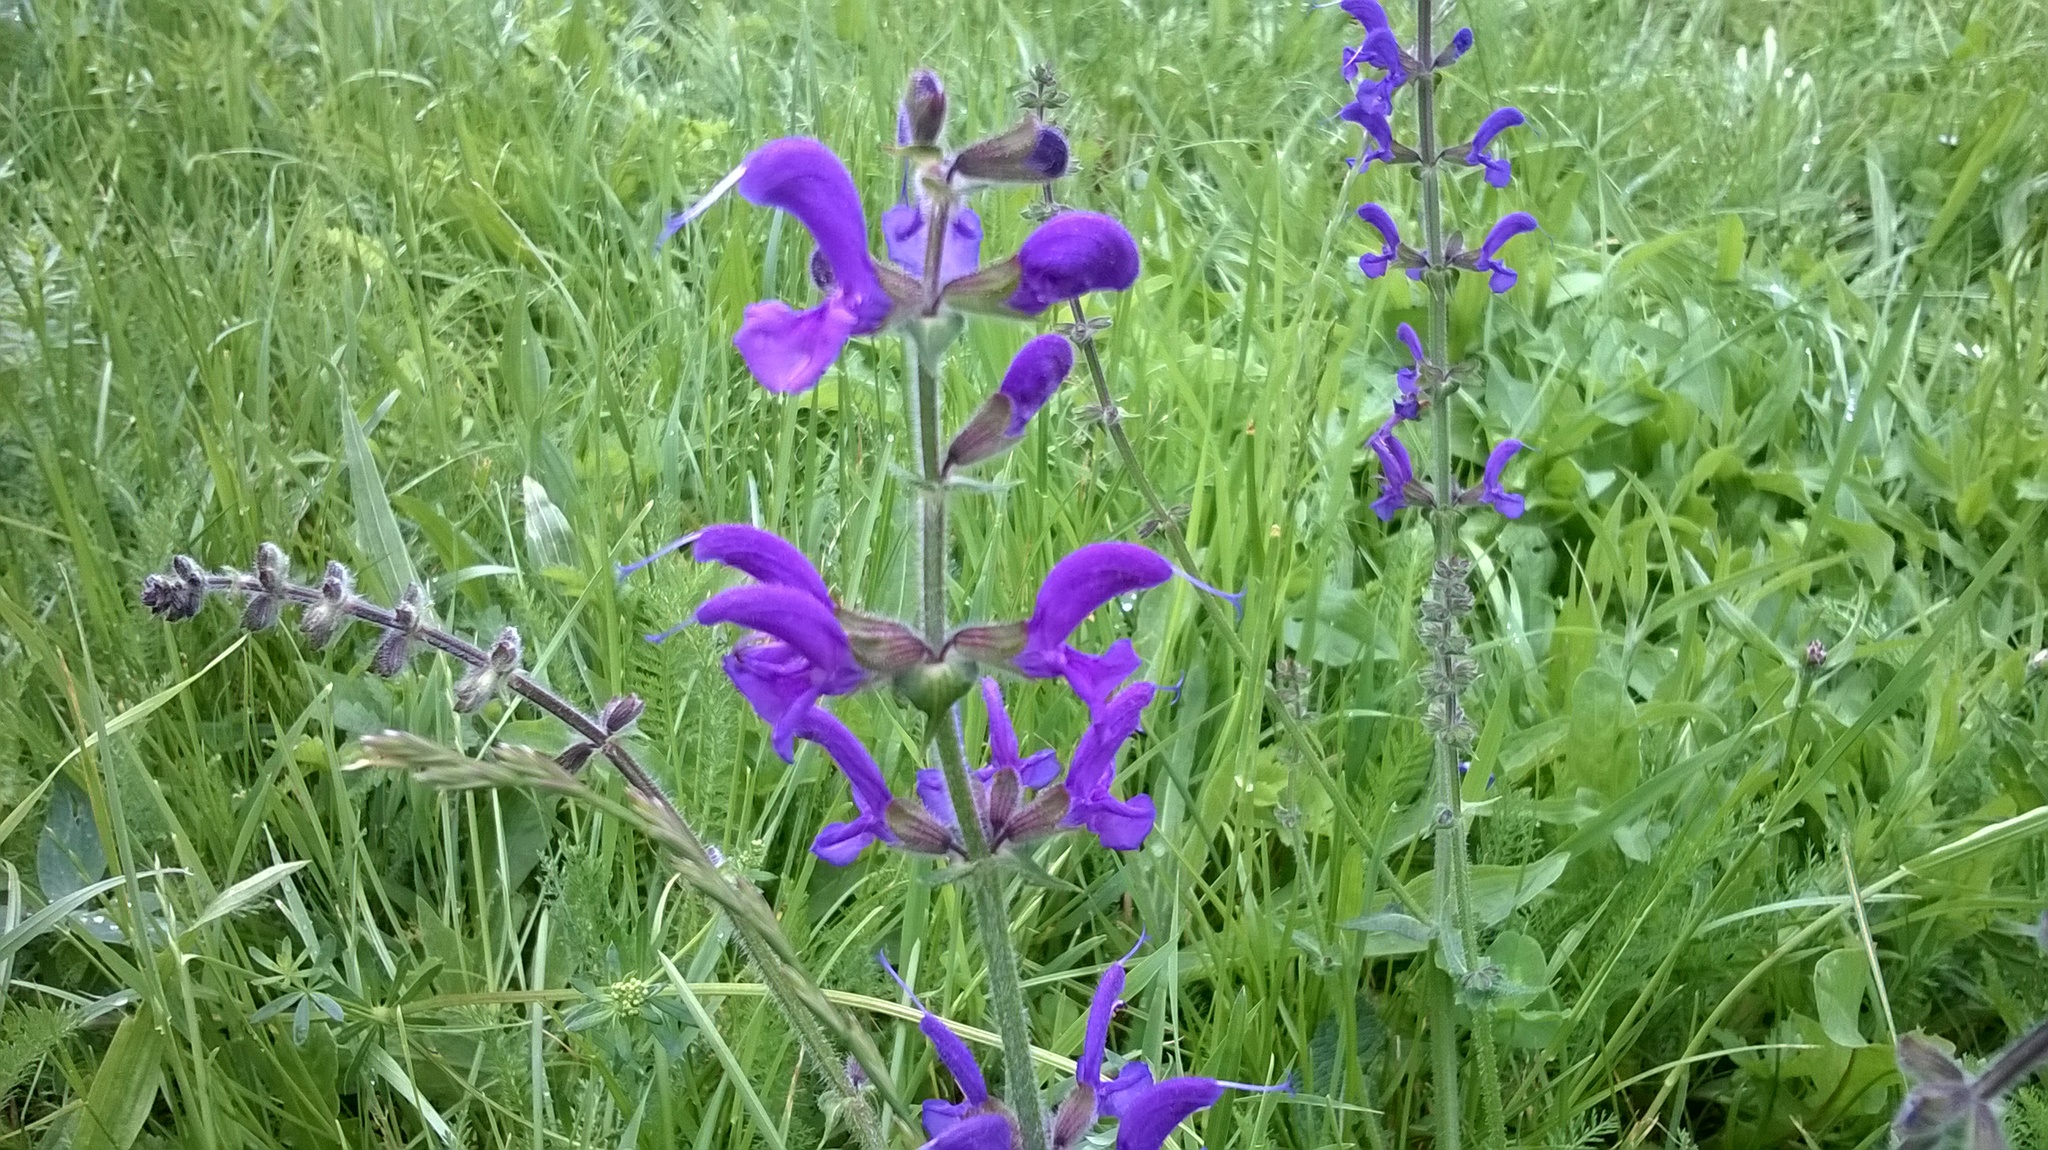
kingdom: Plantae
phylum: Tracheophyta
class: Magnoliopsida
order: Lamiales
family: Lamiaceae
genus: Salvia
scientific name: Salvia pratensis
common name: Meadow sage
